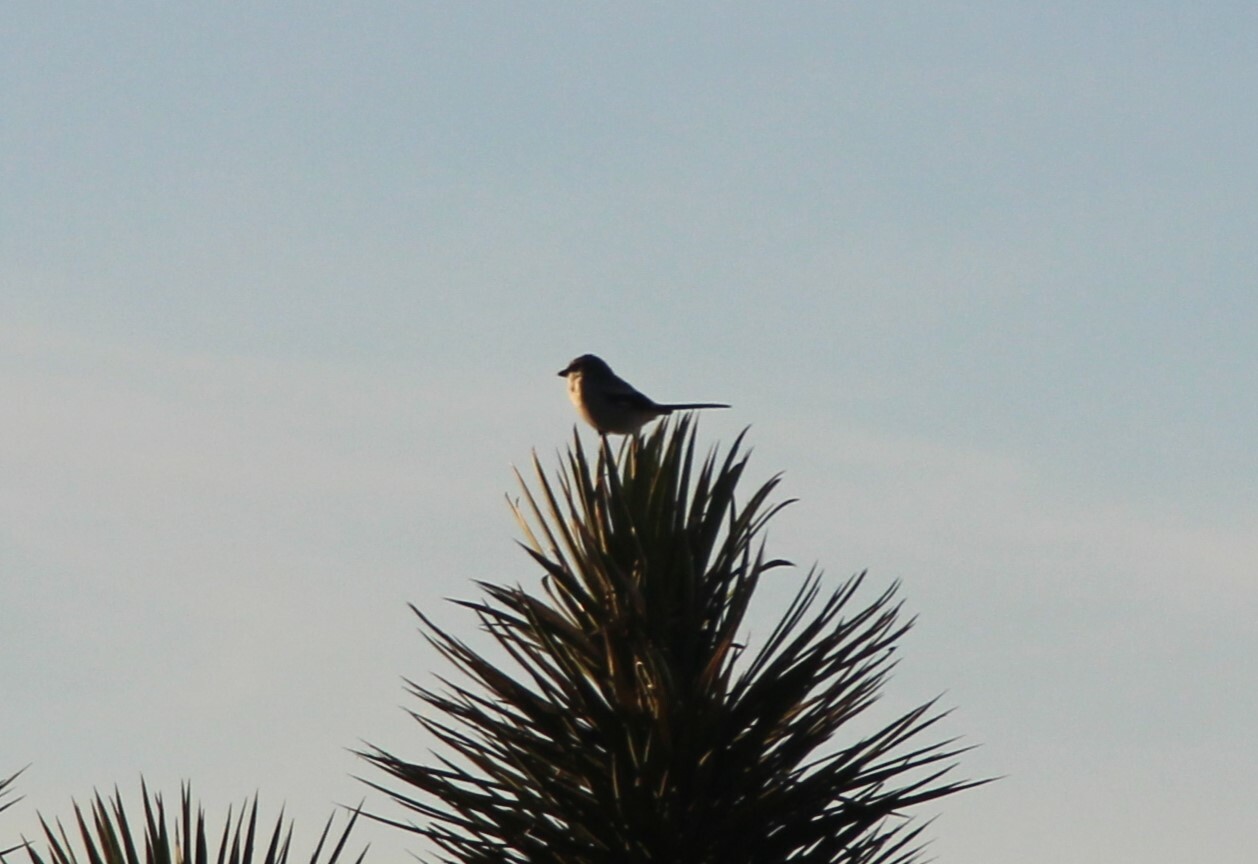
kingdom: Animalia
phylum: Chordata
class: Aves
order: Passeriformes
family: Laniidae
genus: Lanius
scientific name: Lanius ludovicianus
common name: Loggerhead shrike
